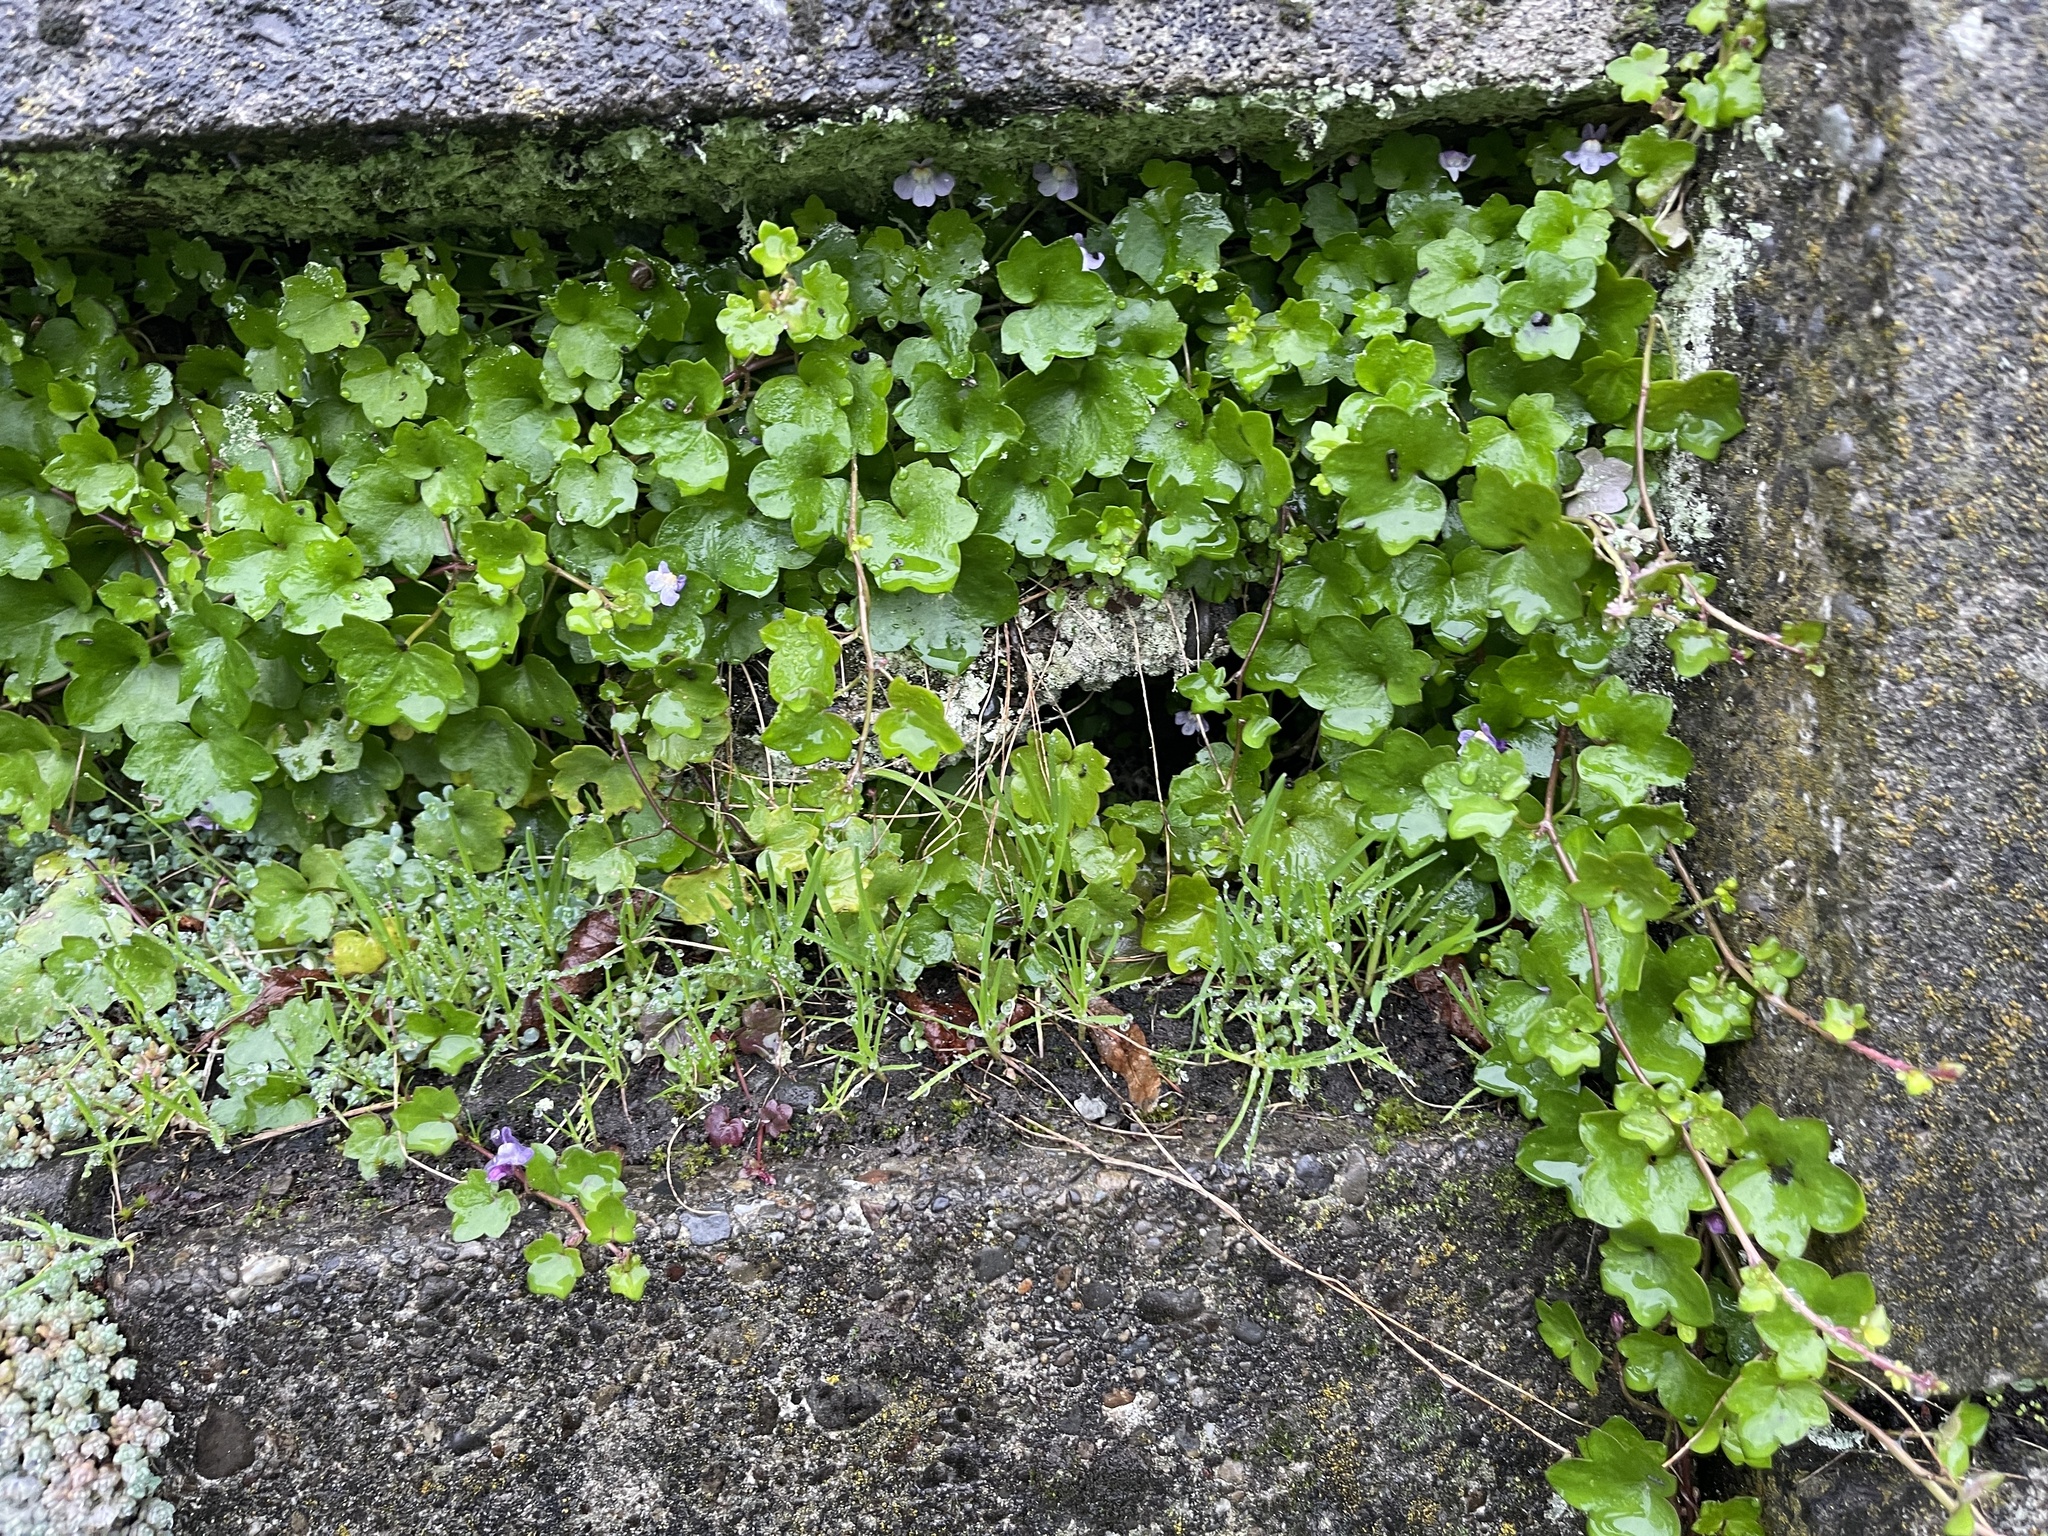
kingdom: Plantae
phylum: Tracheophyta
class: Magnoliopsida
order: Lamiales
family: Plantaginaceae
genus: Cymbalaria
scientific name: Cymbalaria muralis
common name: Ivy-leaved toadflax
